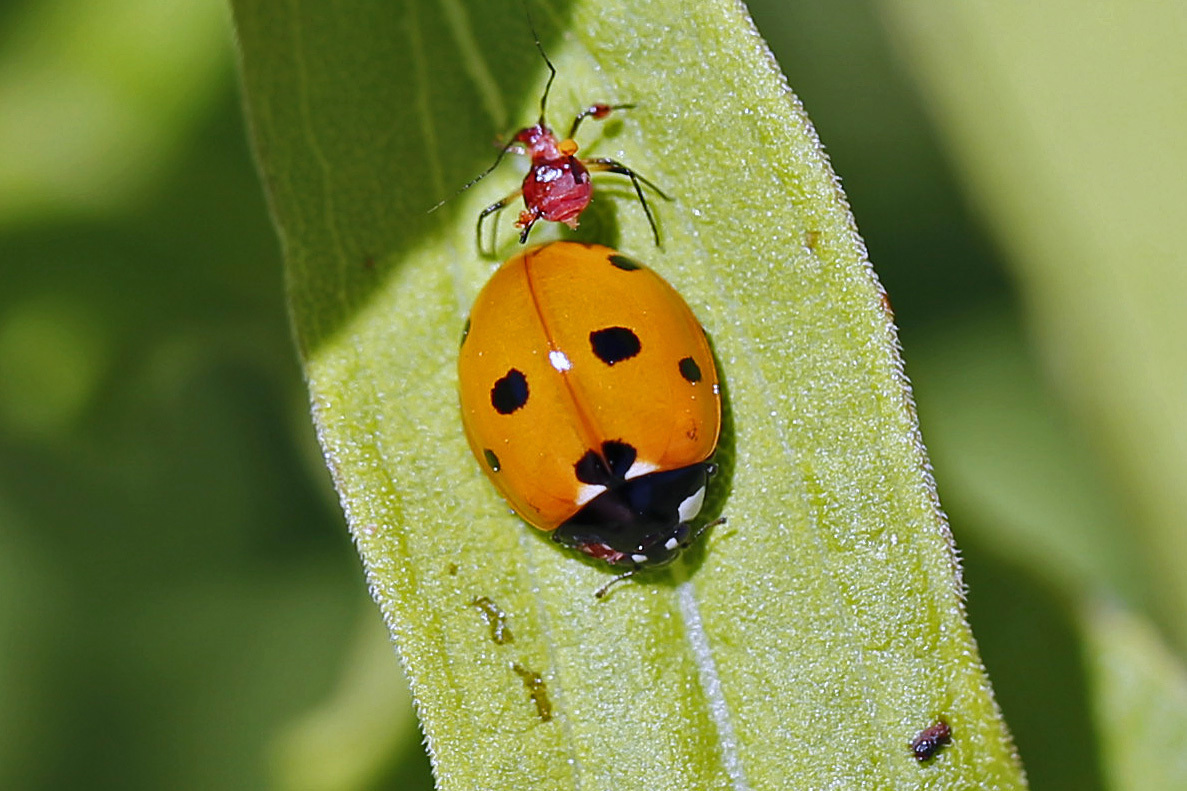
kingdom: Animalia
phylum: Arthropoda
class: Insecta
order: Coleoptera
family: Coccinellidae
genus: Coccinella
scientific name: Coccinella septempunctata
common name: Sevenspotted lady beetle
